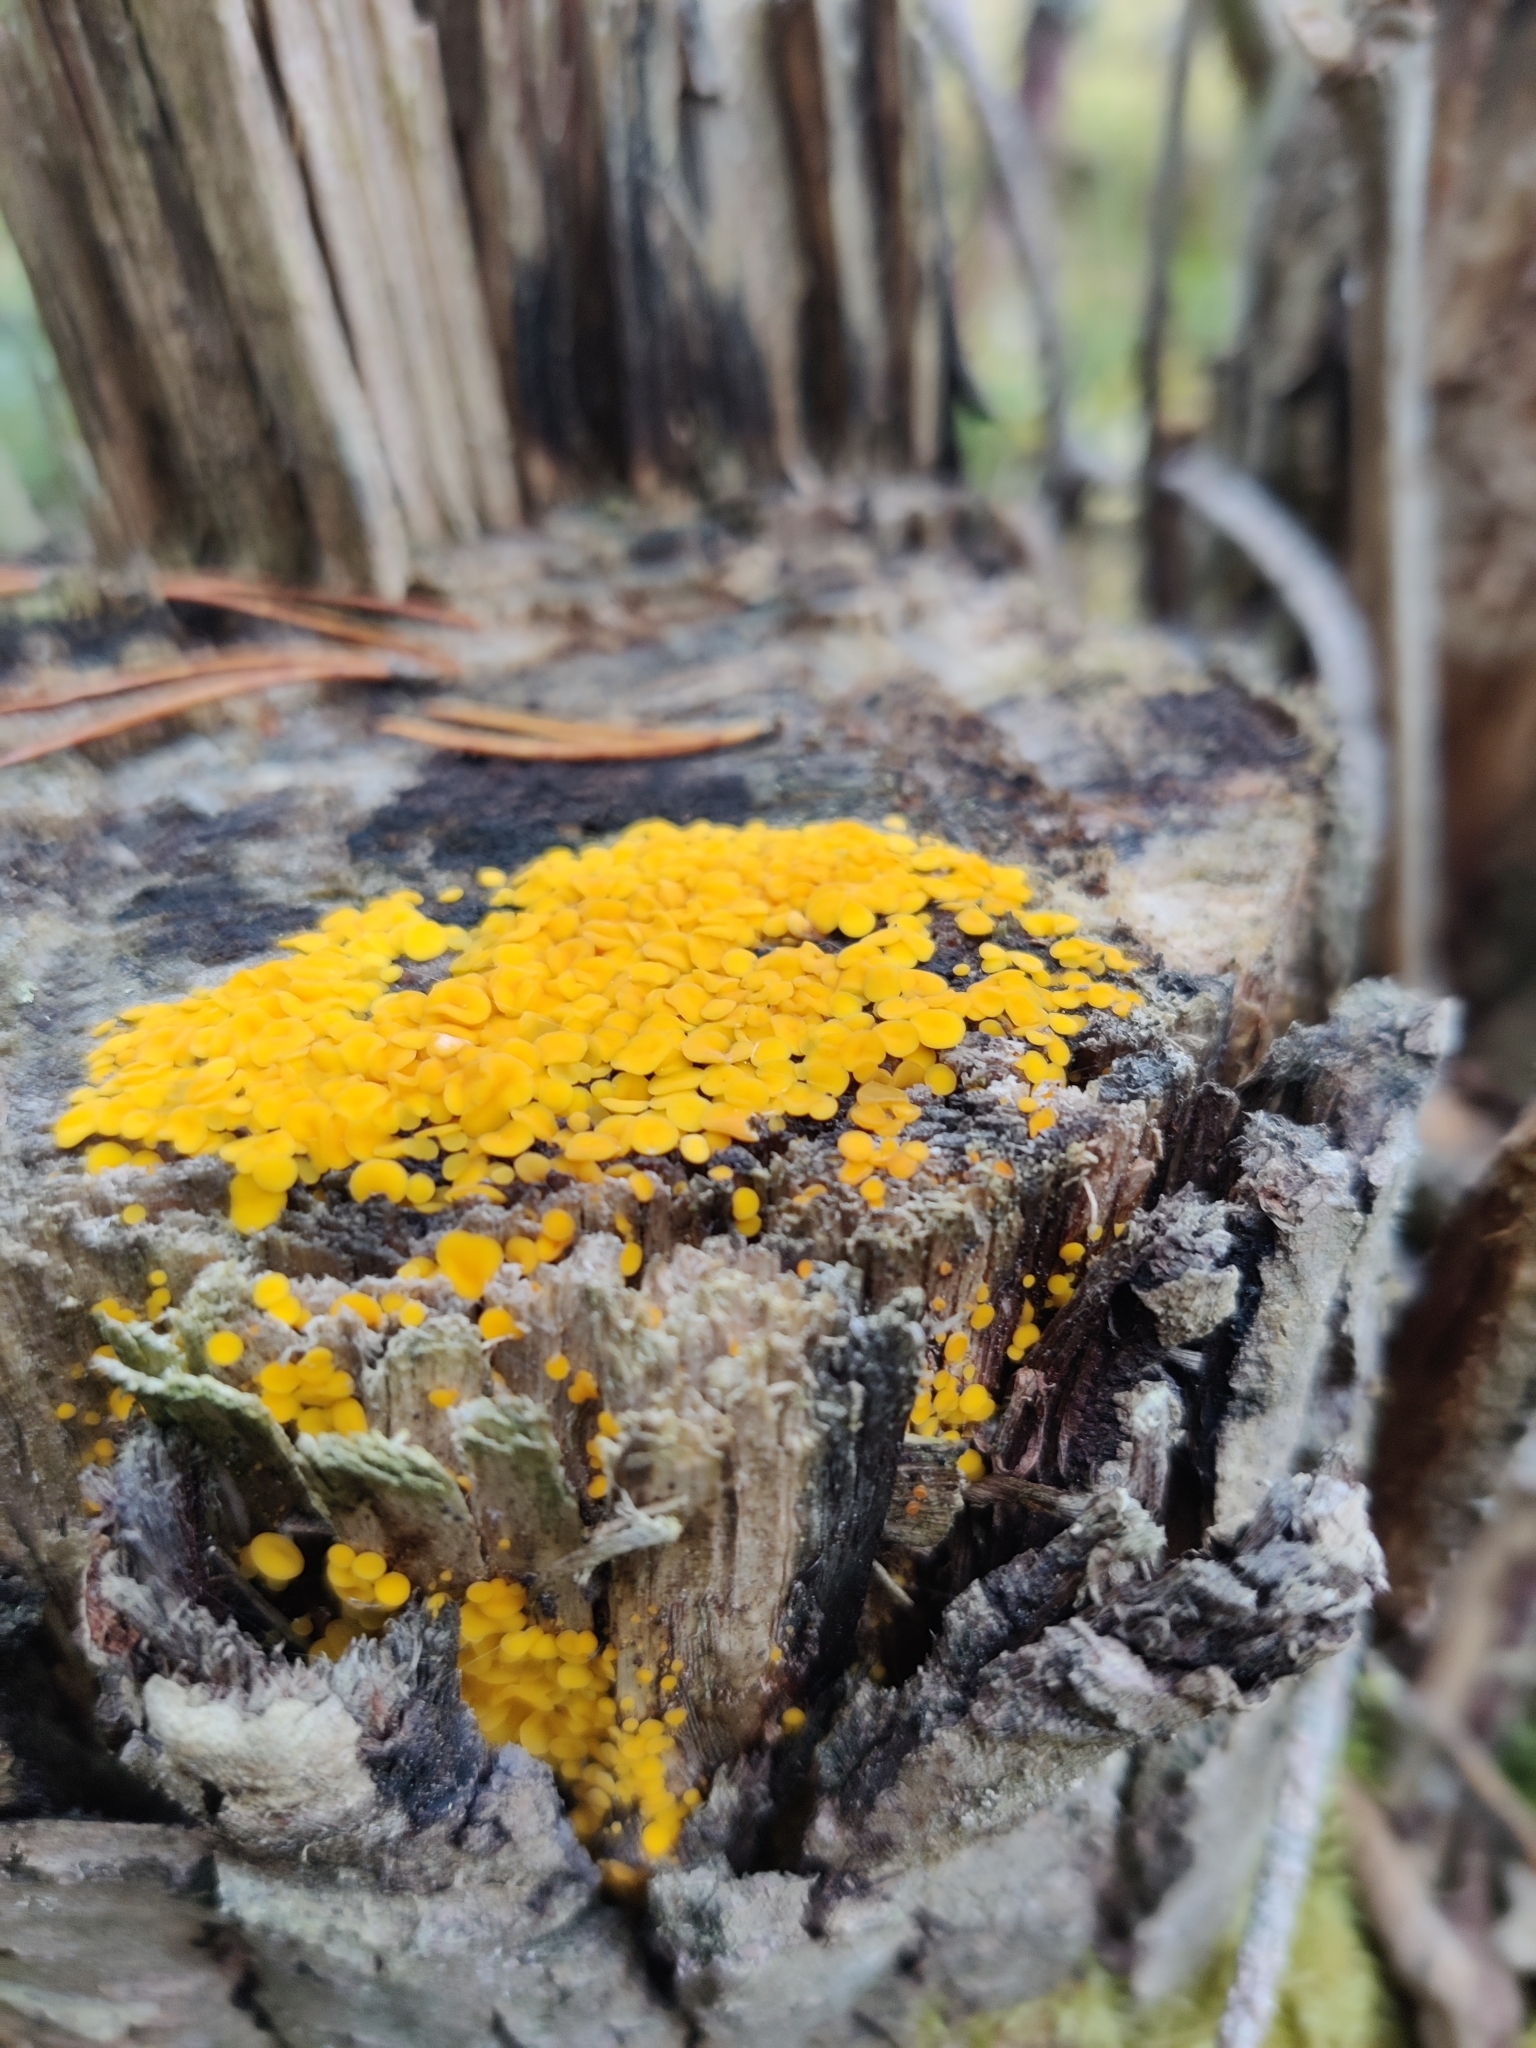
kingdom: Fungi
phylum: Ascomycota
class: Leotiomycetes
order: Helotiales
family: Pezizellaceae
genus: Calycina
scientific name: Calycina citrina
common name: Yellow fairy cups
